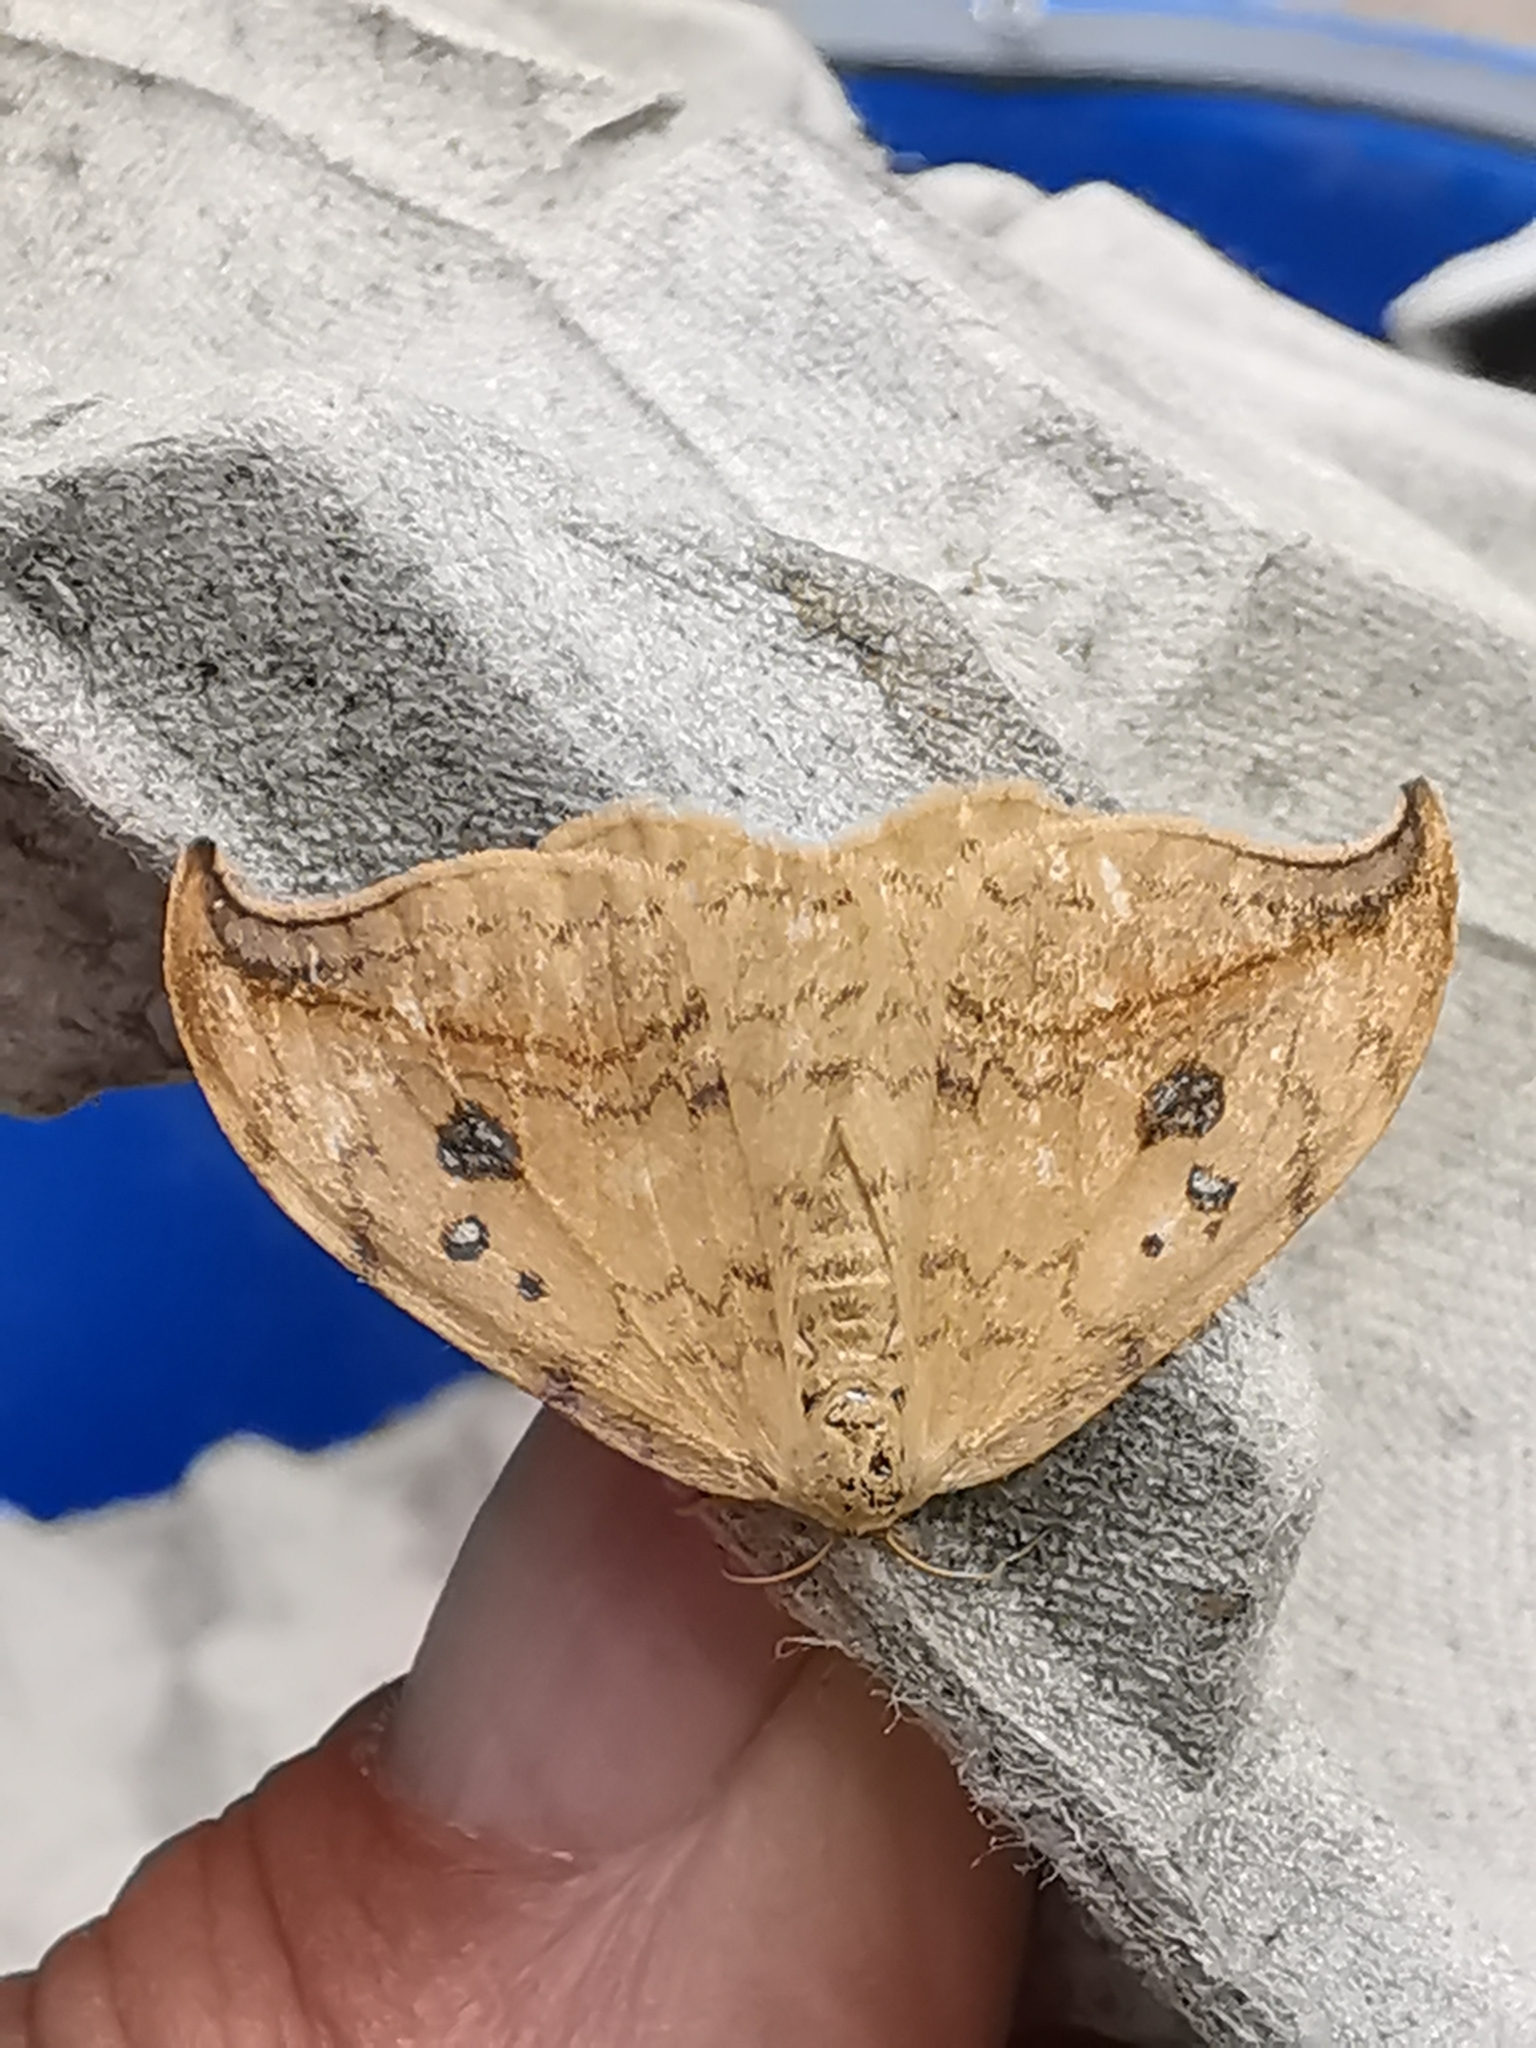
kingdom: Animalia
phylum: Arthropoda
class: Insecta
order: Lepidoptera
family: Drepanidae
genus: Drepana
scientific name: Drepana falcataria
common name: Pebble hook-tip
